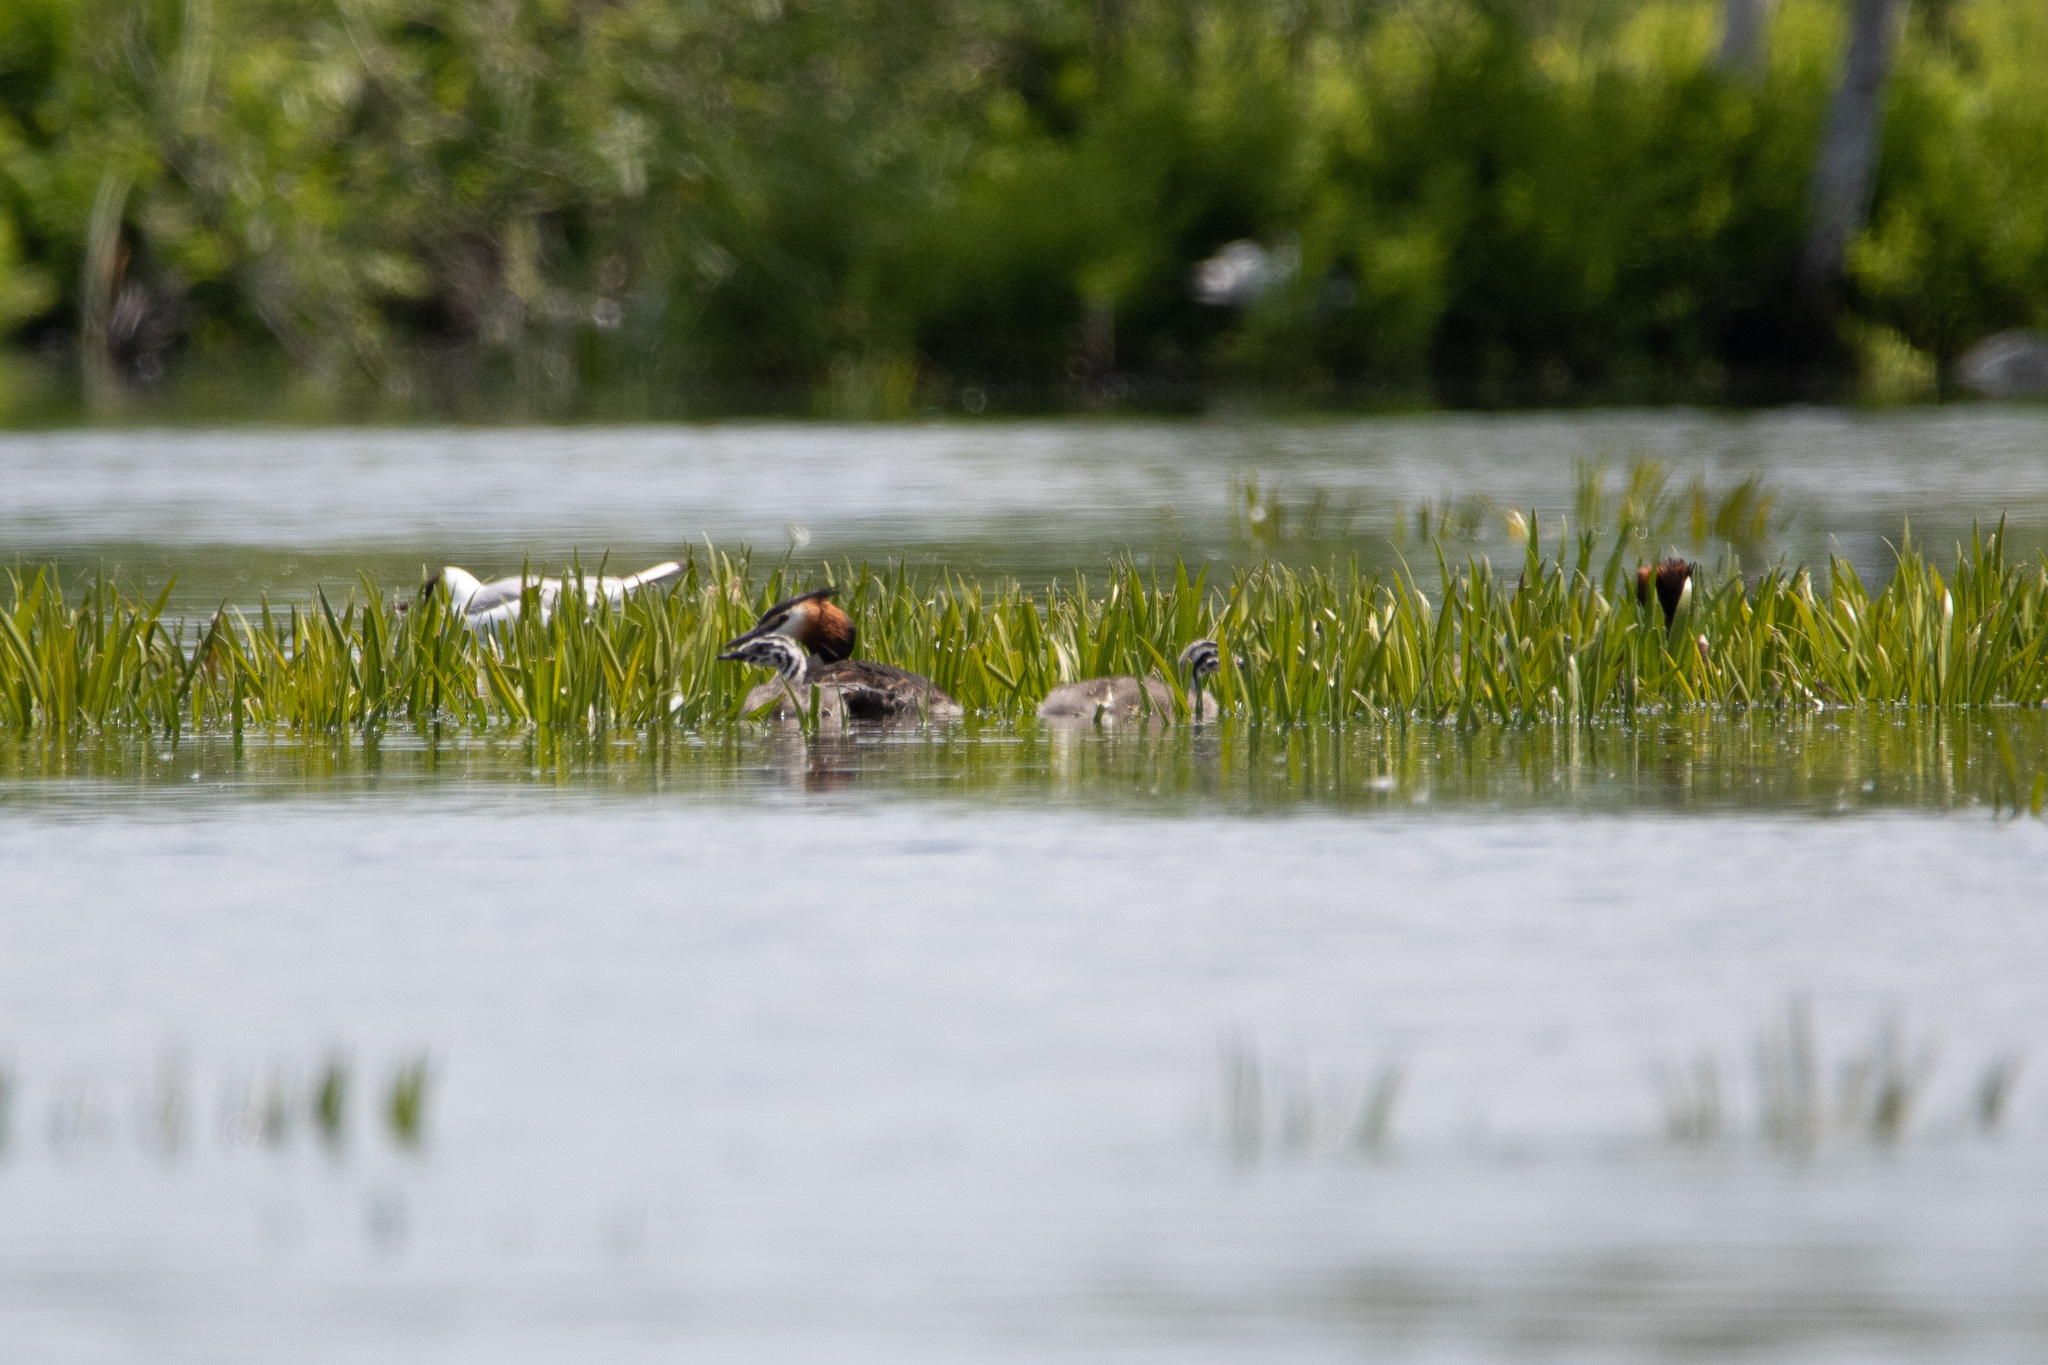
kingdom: Animalia
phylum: Chordata
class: Aves
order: Podicipediformes
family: Podicipedidae
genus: Podiceps
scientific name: Podiceps cristatus
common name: Great crested grebe
